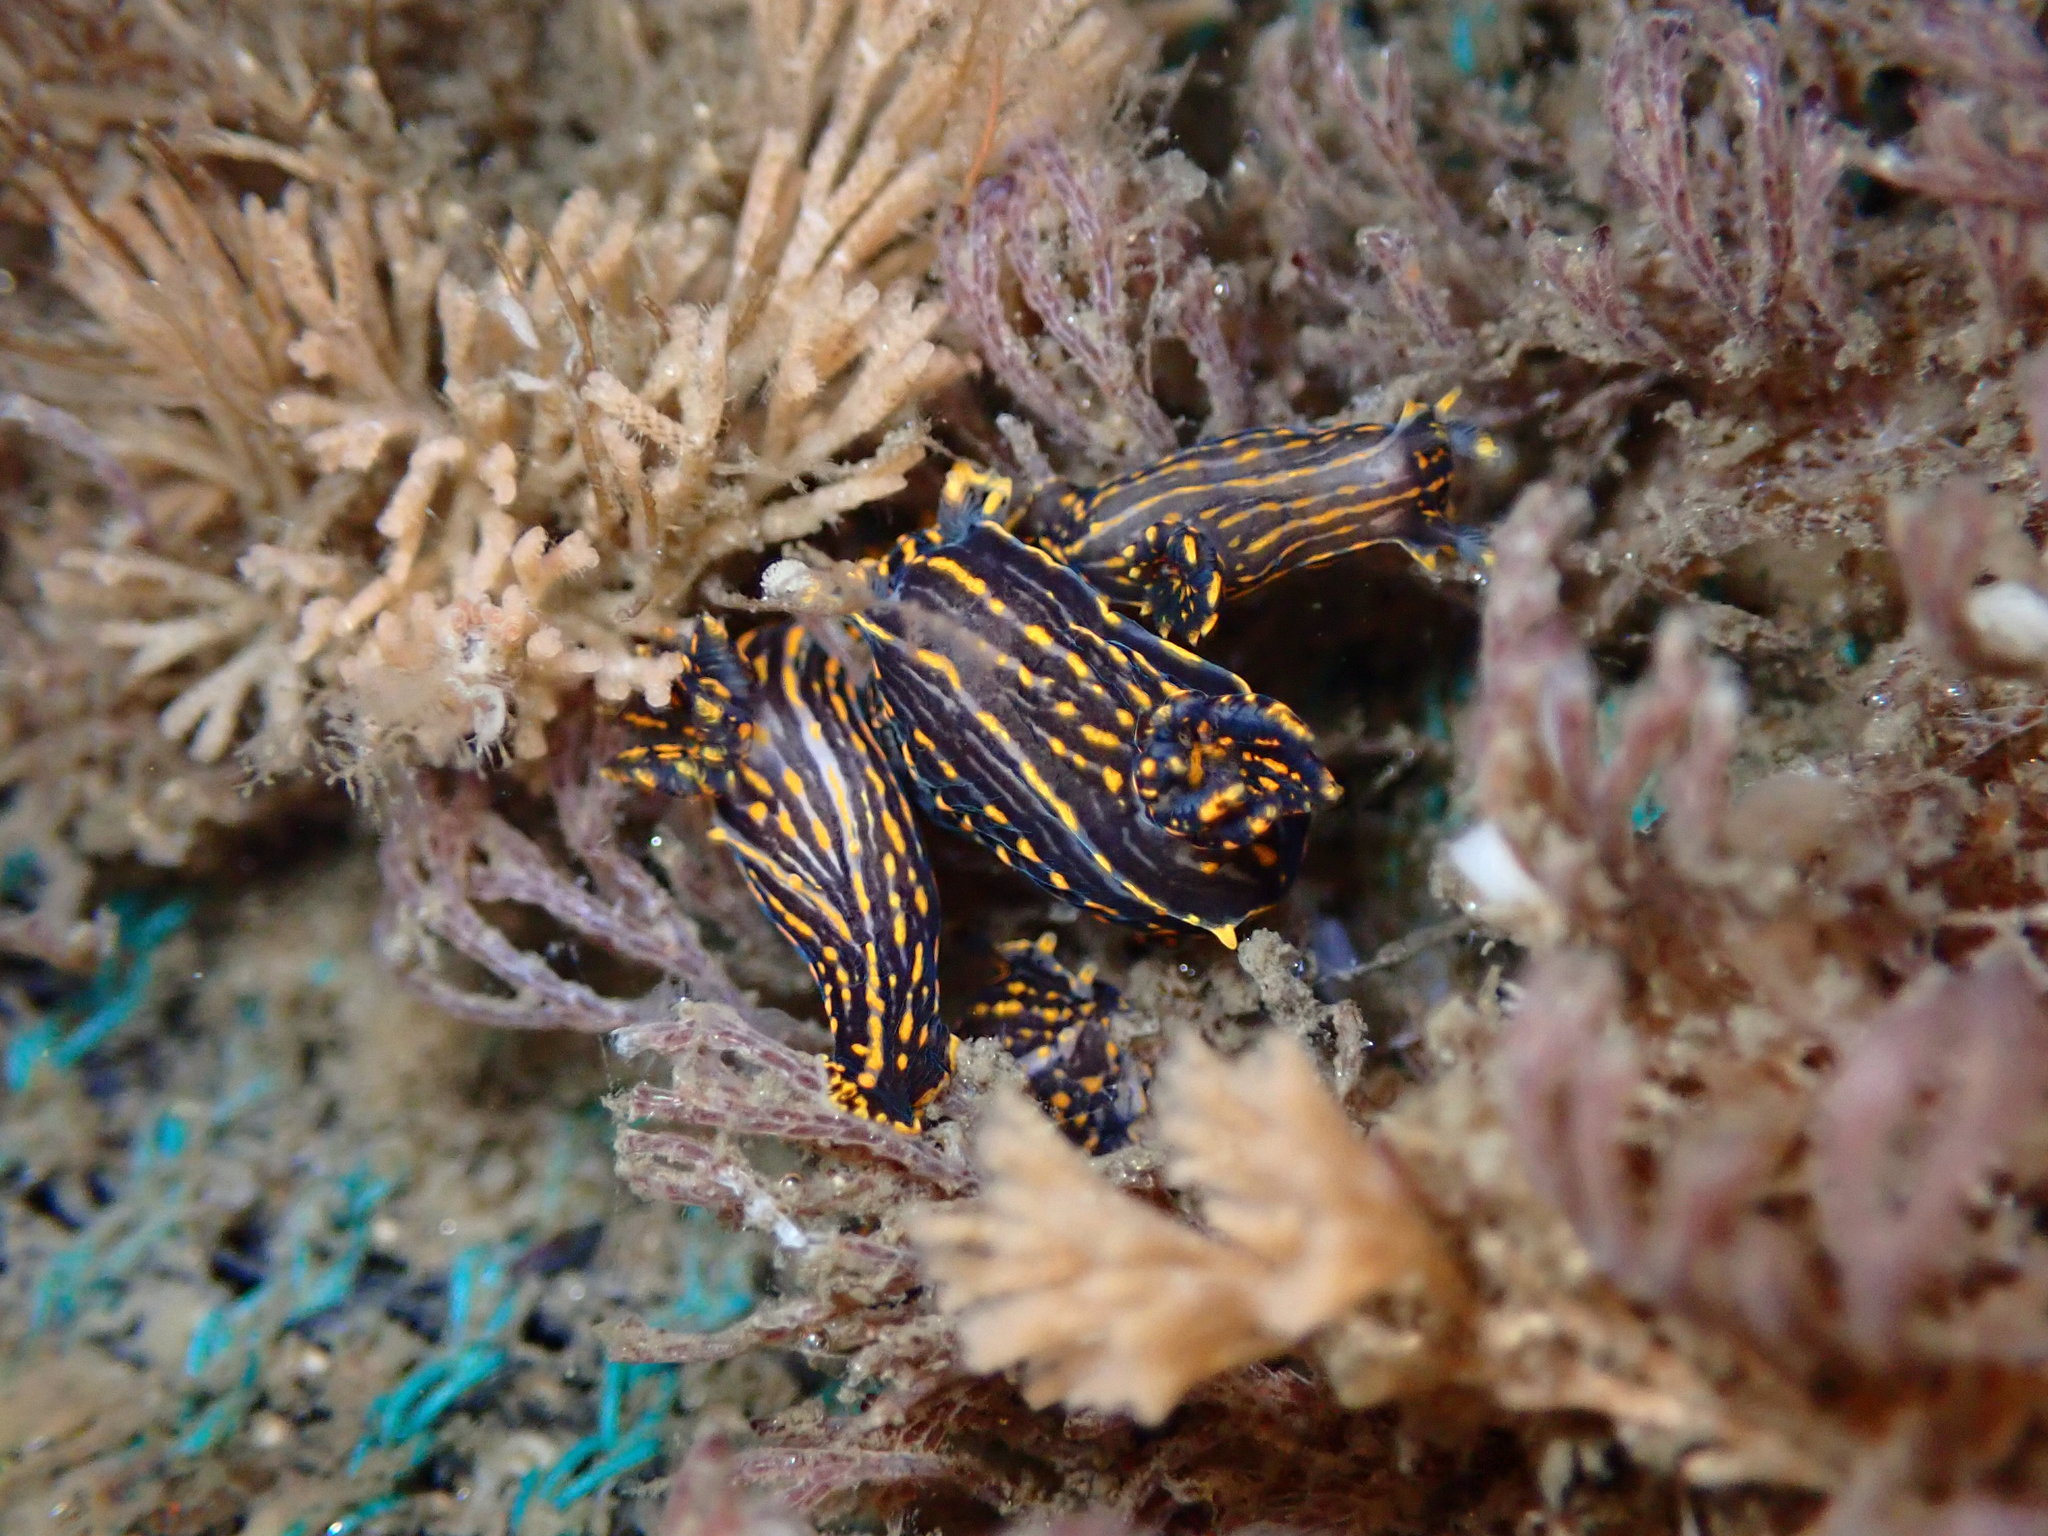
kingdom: Animalia
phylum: Mollusca
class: Gastropoda
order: Nudibranchia
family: Polyceridae
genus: Polycera
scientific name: Polycera atra
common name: Orange-spike polycera
